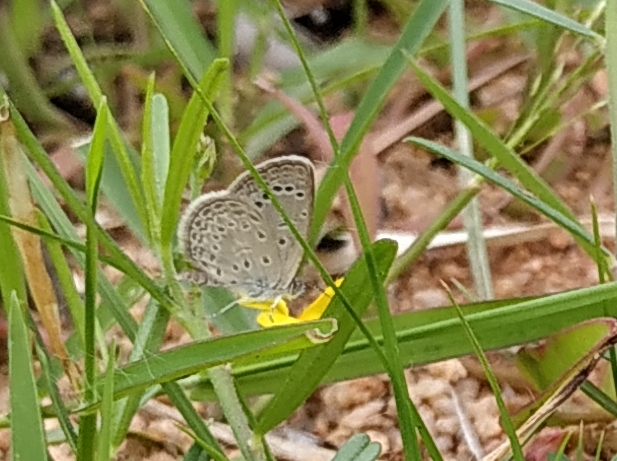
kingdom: Animalia
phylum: Arthropoda
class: Insecta
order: Lepidoptera
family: Lycaenidae
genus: Zizeeria
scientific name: Zizeeria karsandra
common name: Dark grass blue
